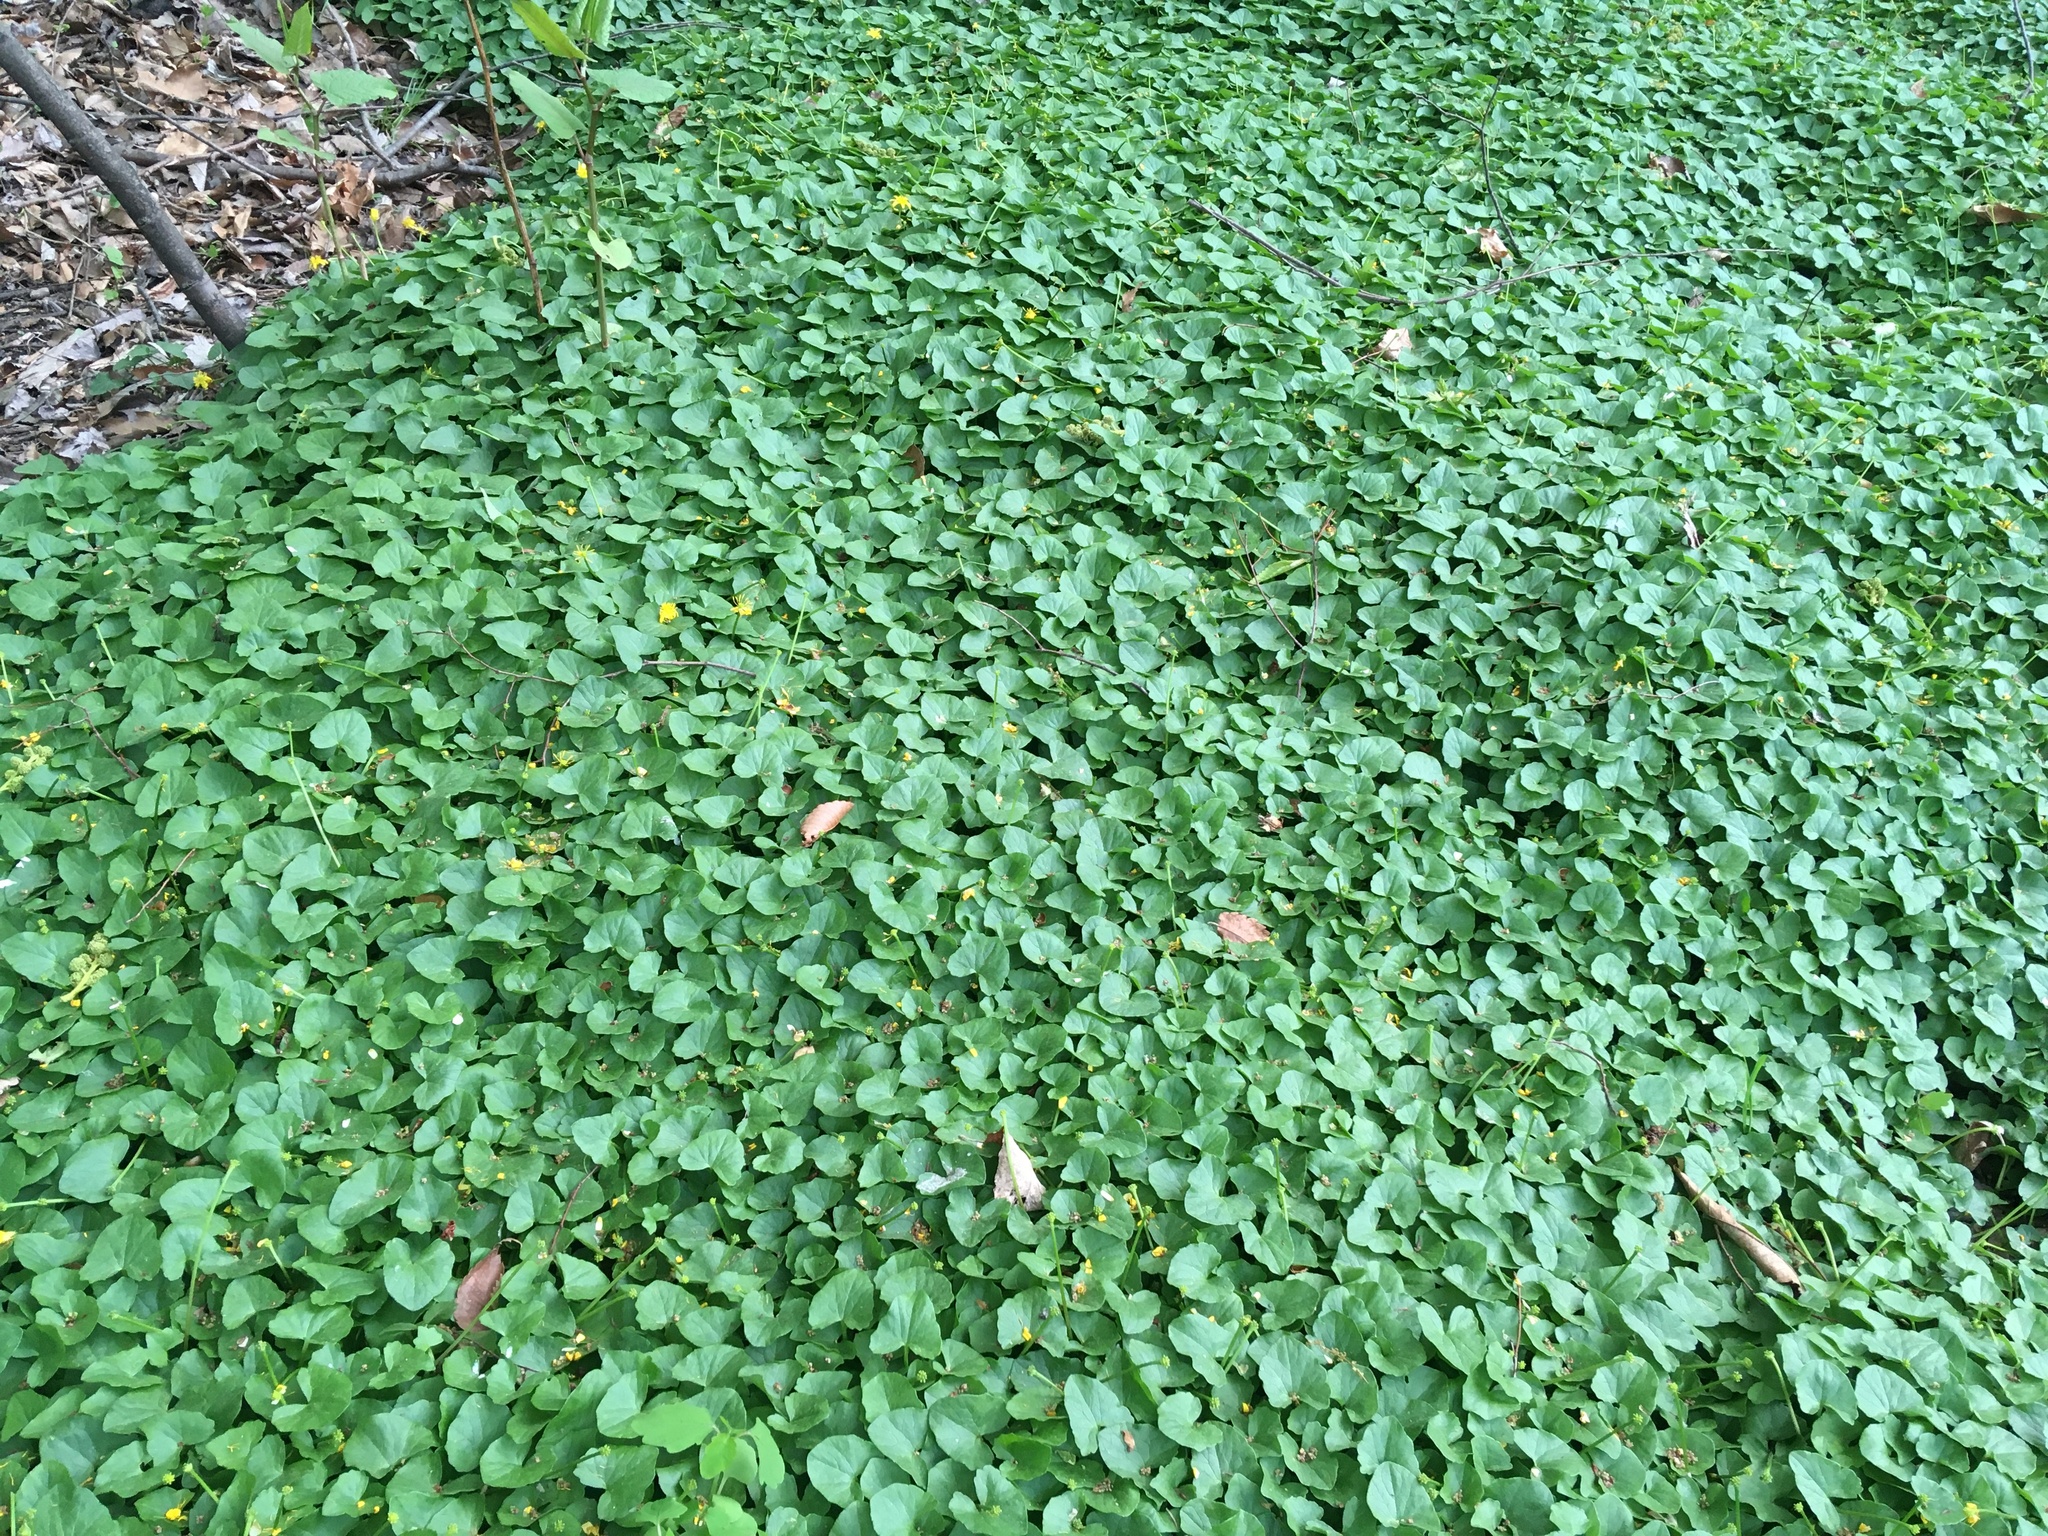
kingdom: Plantae
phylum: Tracheophyta
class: Magnoliopsida
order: Ranunculales
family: Ranunculaceae
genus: Ficaria
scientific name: Ficaria verna
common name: Lesser celandine
